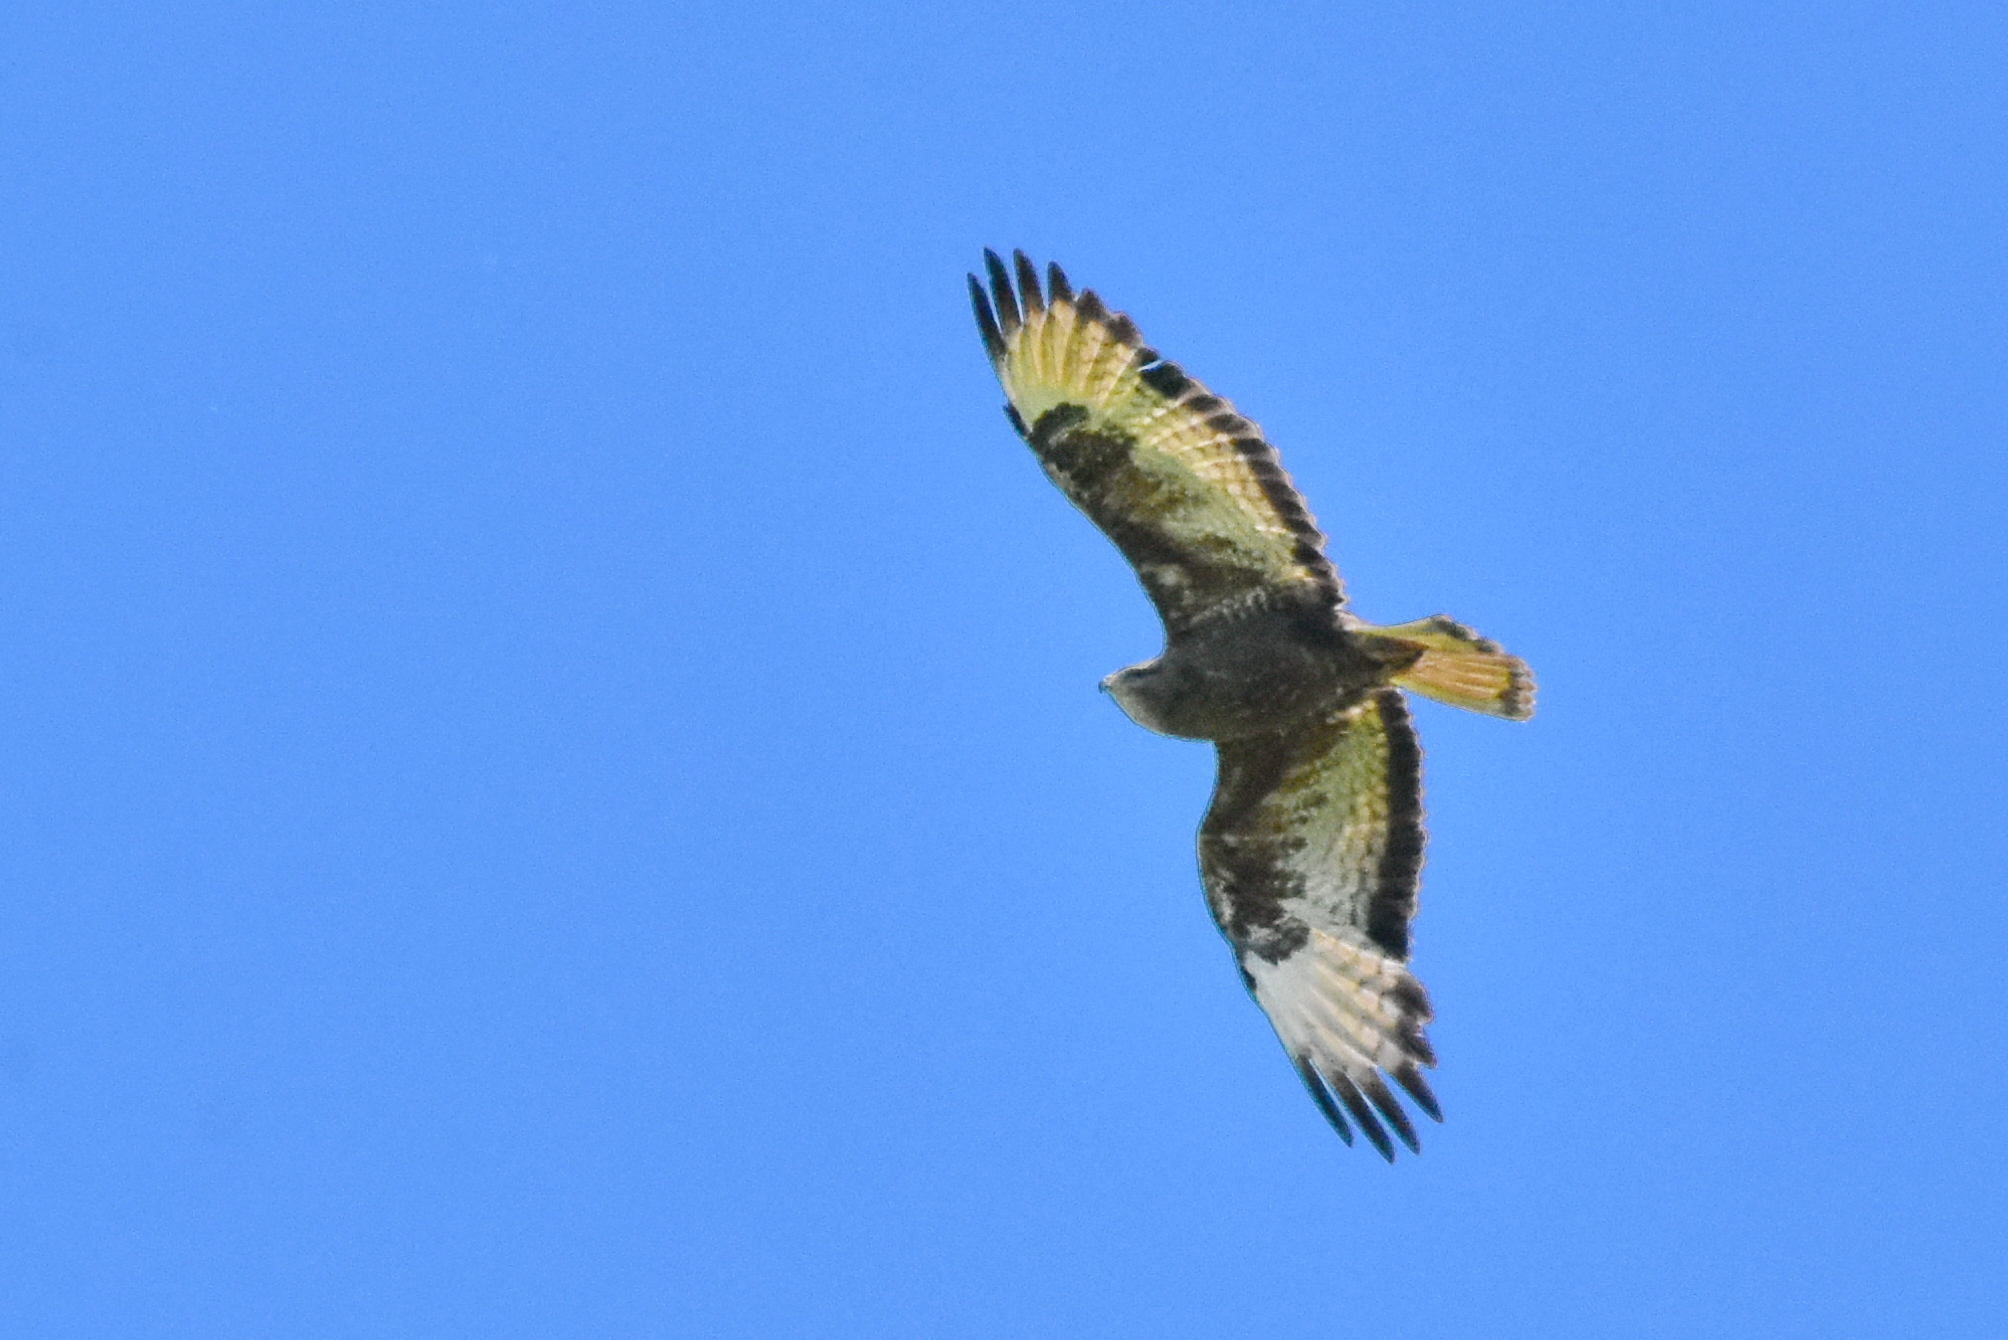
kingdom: Animalia
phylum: Chordata
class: Aves
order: Accipitriformes
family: Accipitridae
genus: Buteo
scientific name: Buteo buteo
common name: Common buzzard
